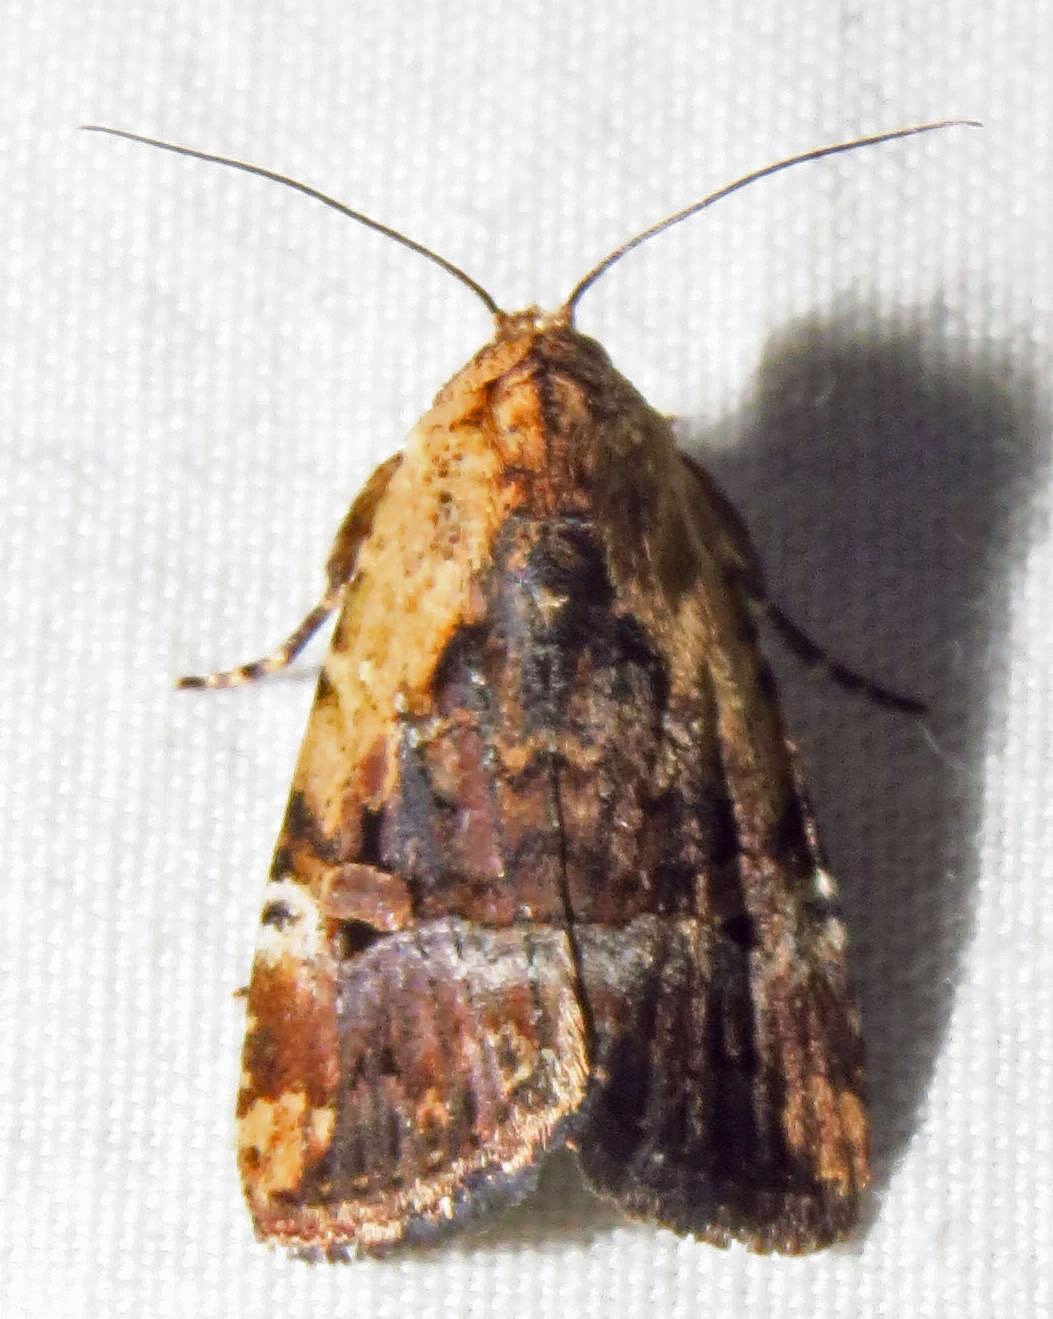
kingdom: Animalia
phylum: Arthropoda
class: Insecta
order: Lepidoptera
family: Noctuidae
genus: Elaphria
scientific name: Elaphria chalcedonia
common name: Chalcedony midget
